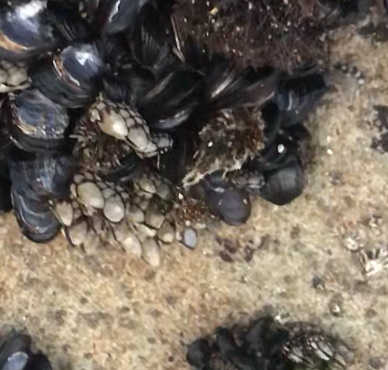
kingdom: Animalia
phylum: Arthropoda
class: Maxillopoda
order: Pedunculata
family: Pollicipedidae
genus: Pollicipes
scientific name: Pollicipes polymerus
